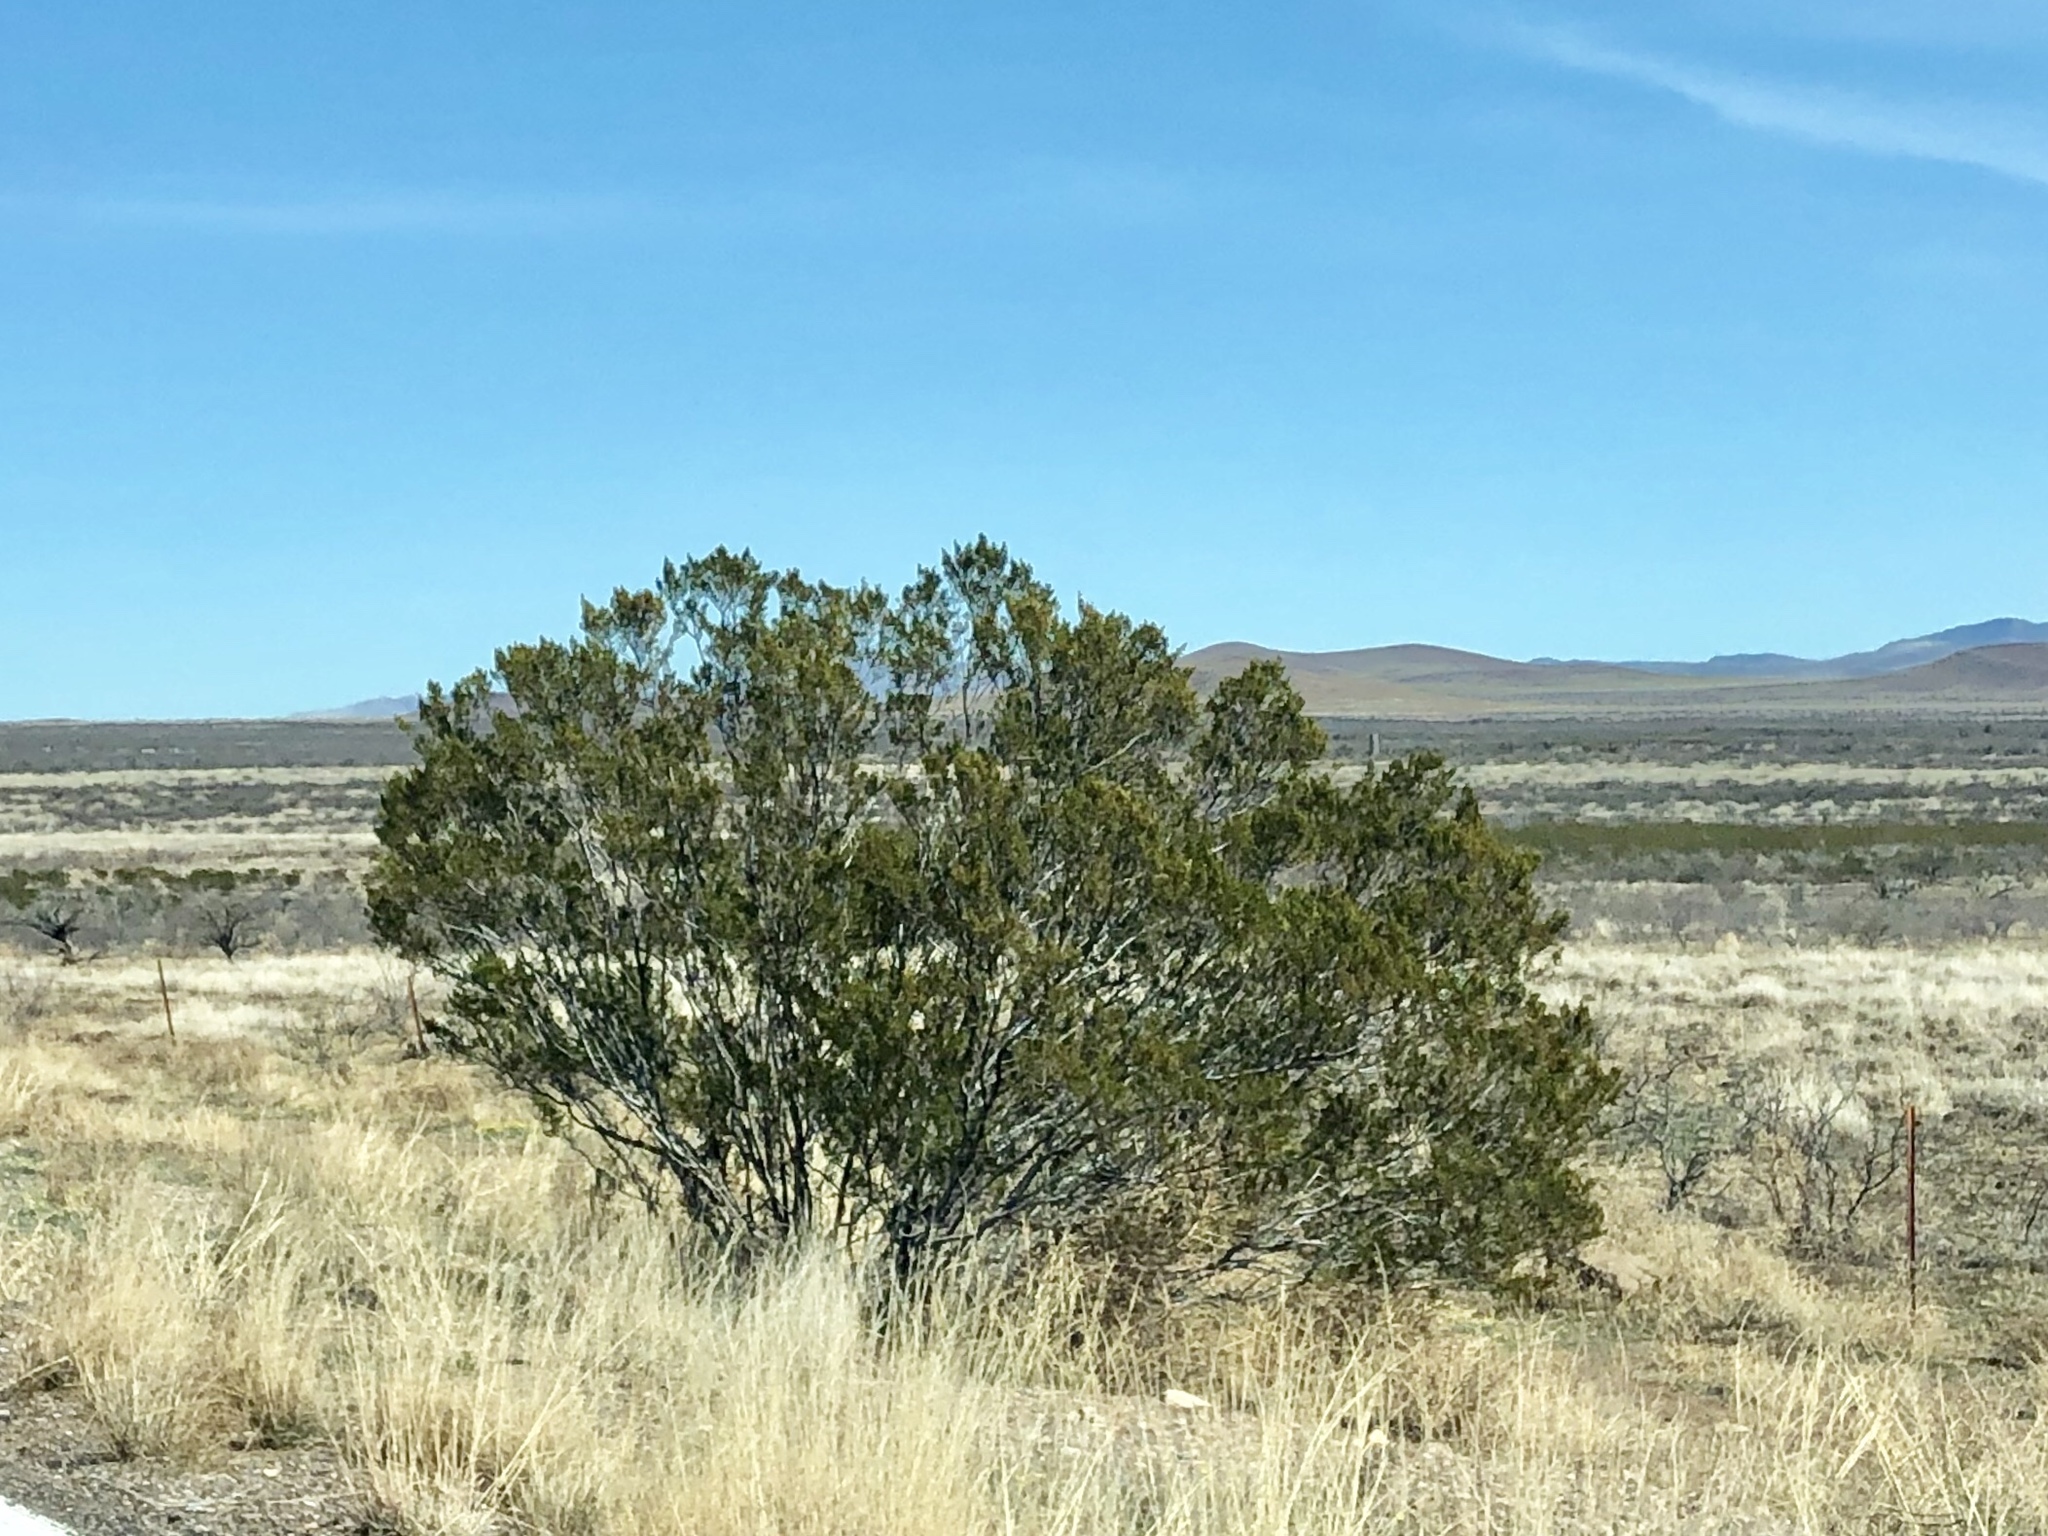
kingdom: Plantae
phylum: Tracheophyta
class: Magnoliopsida
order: Zygophyllales
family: Zygophyllaceae
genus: Larrea
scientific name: Larrea tridentata
